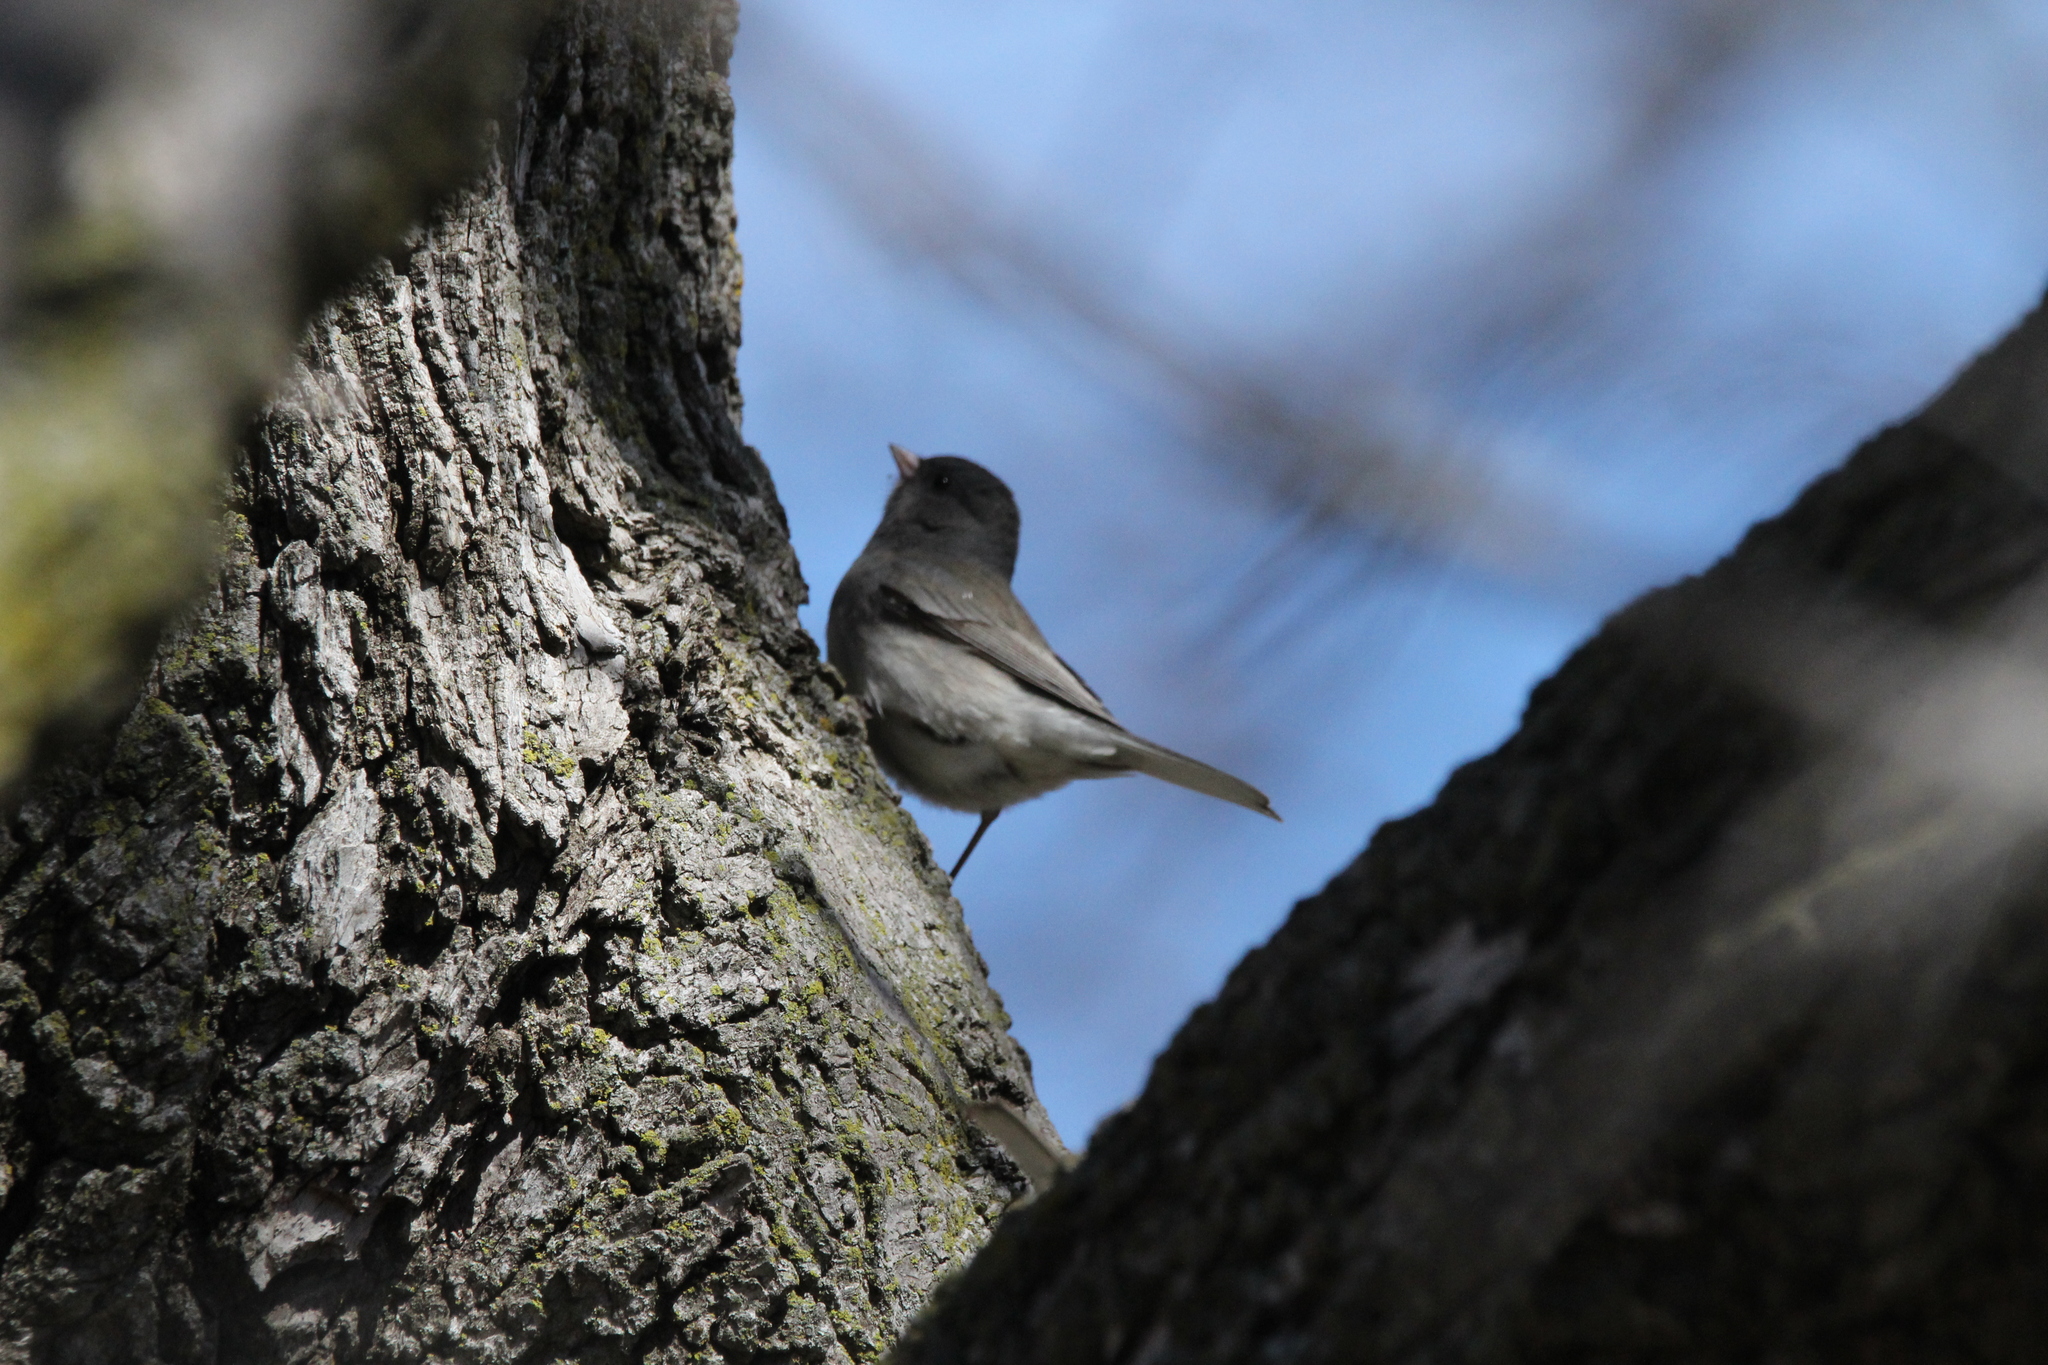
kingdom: Animalia
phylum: Chordata
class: Aves
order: Passeriformes
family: Passerellidae
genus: Junco
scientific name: Junco hyemalis
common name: Dark-eyed junco
